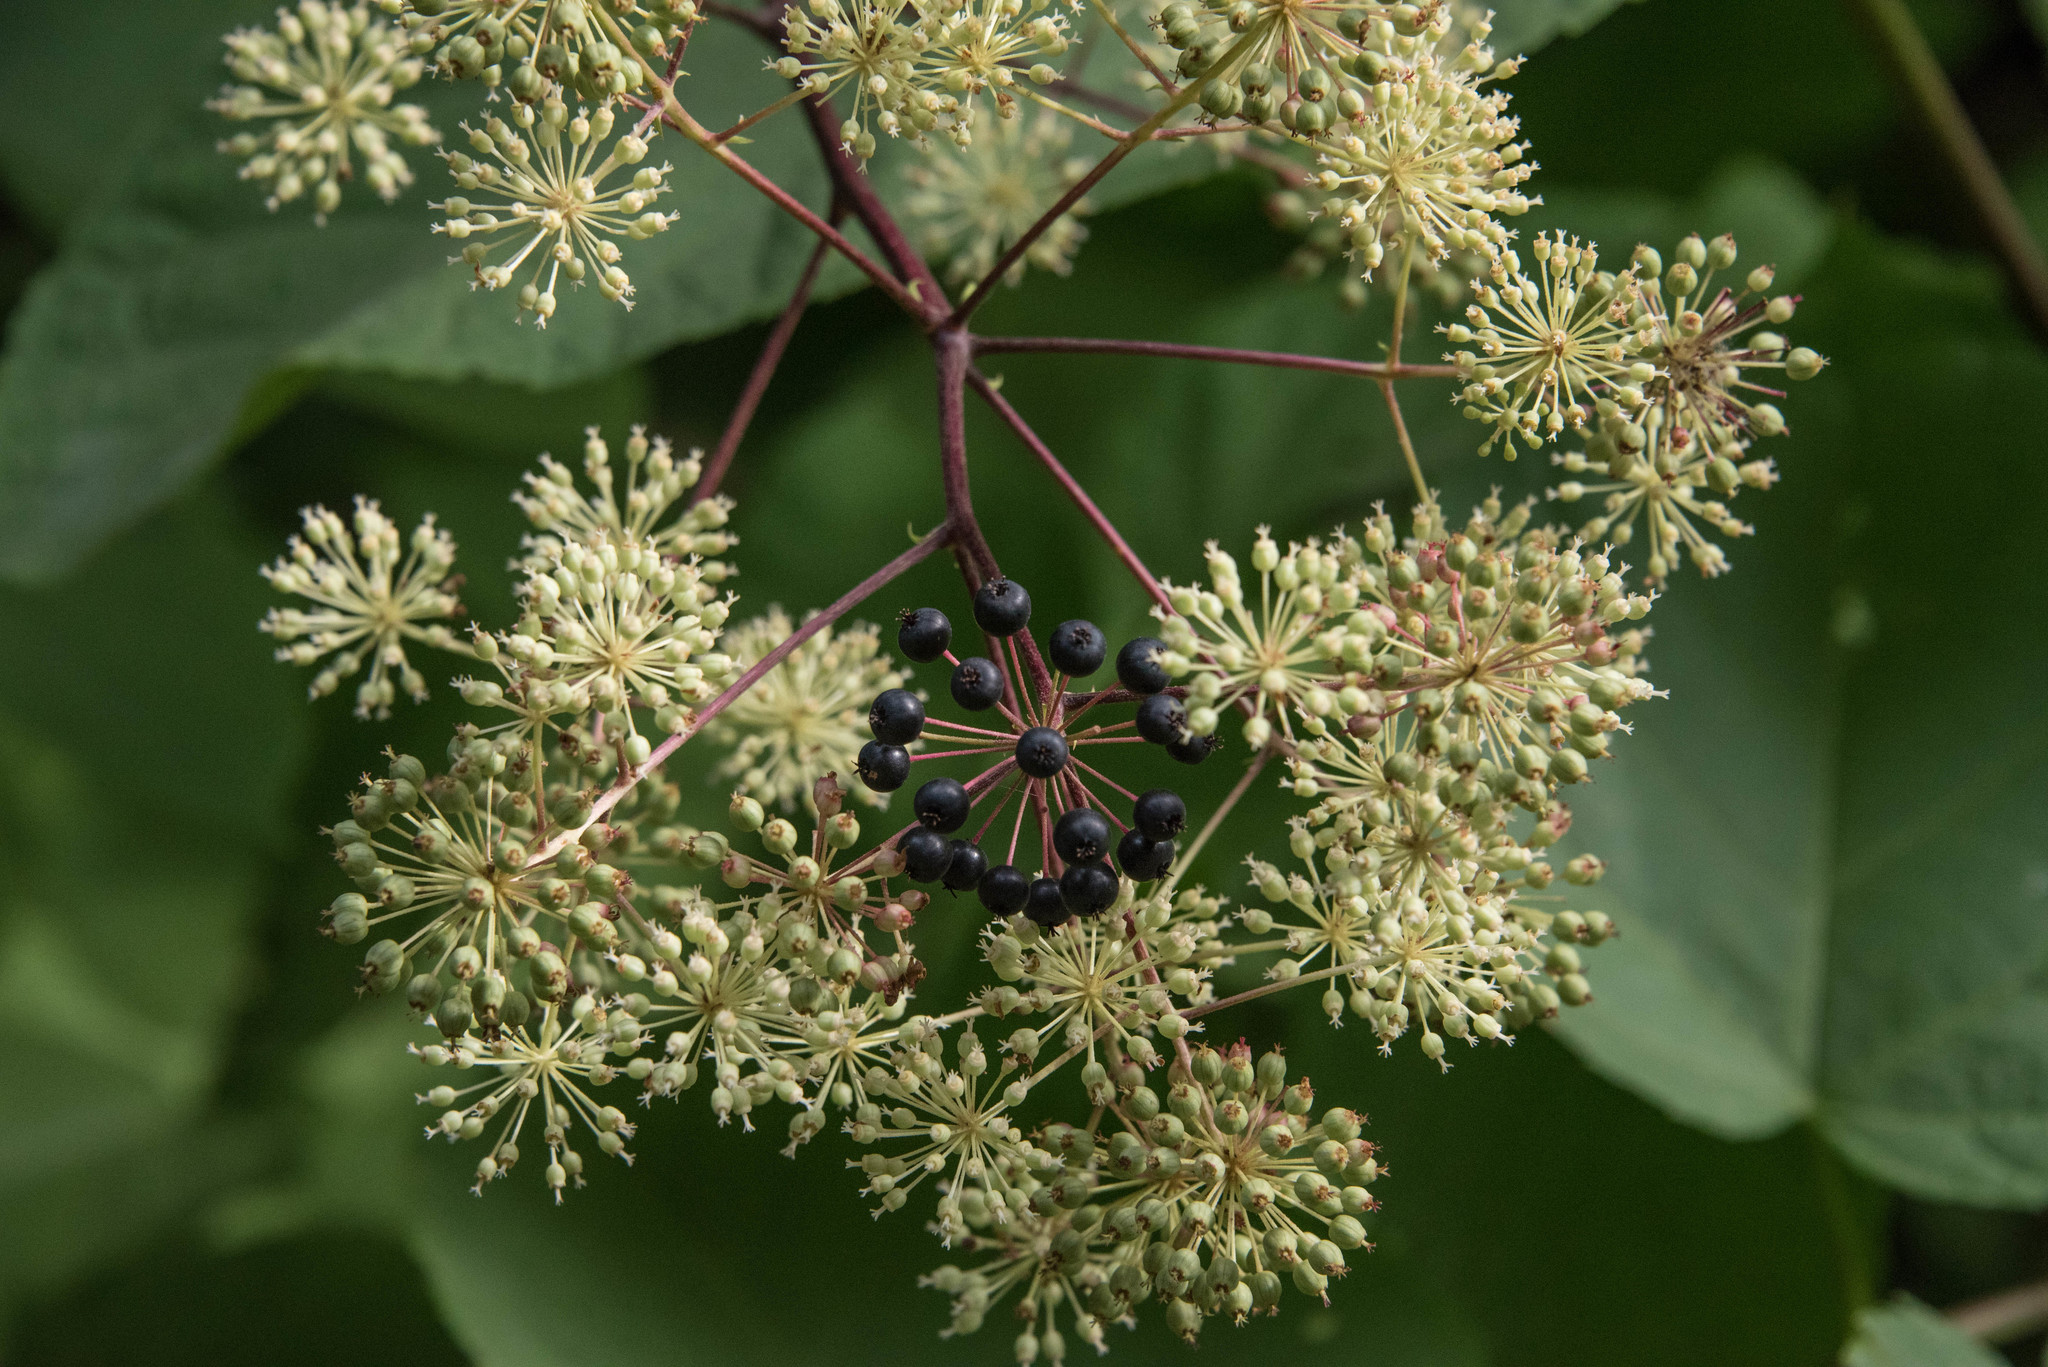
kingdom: Plantae
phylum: Tracheophyta
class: Magnoliopsida
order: Apiales
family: Araliaceae
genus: Aralia
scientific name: Aralia californica
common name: California-ginseng
